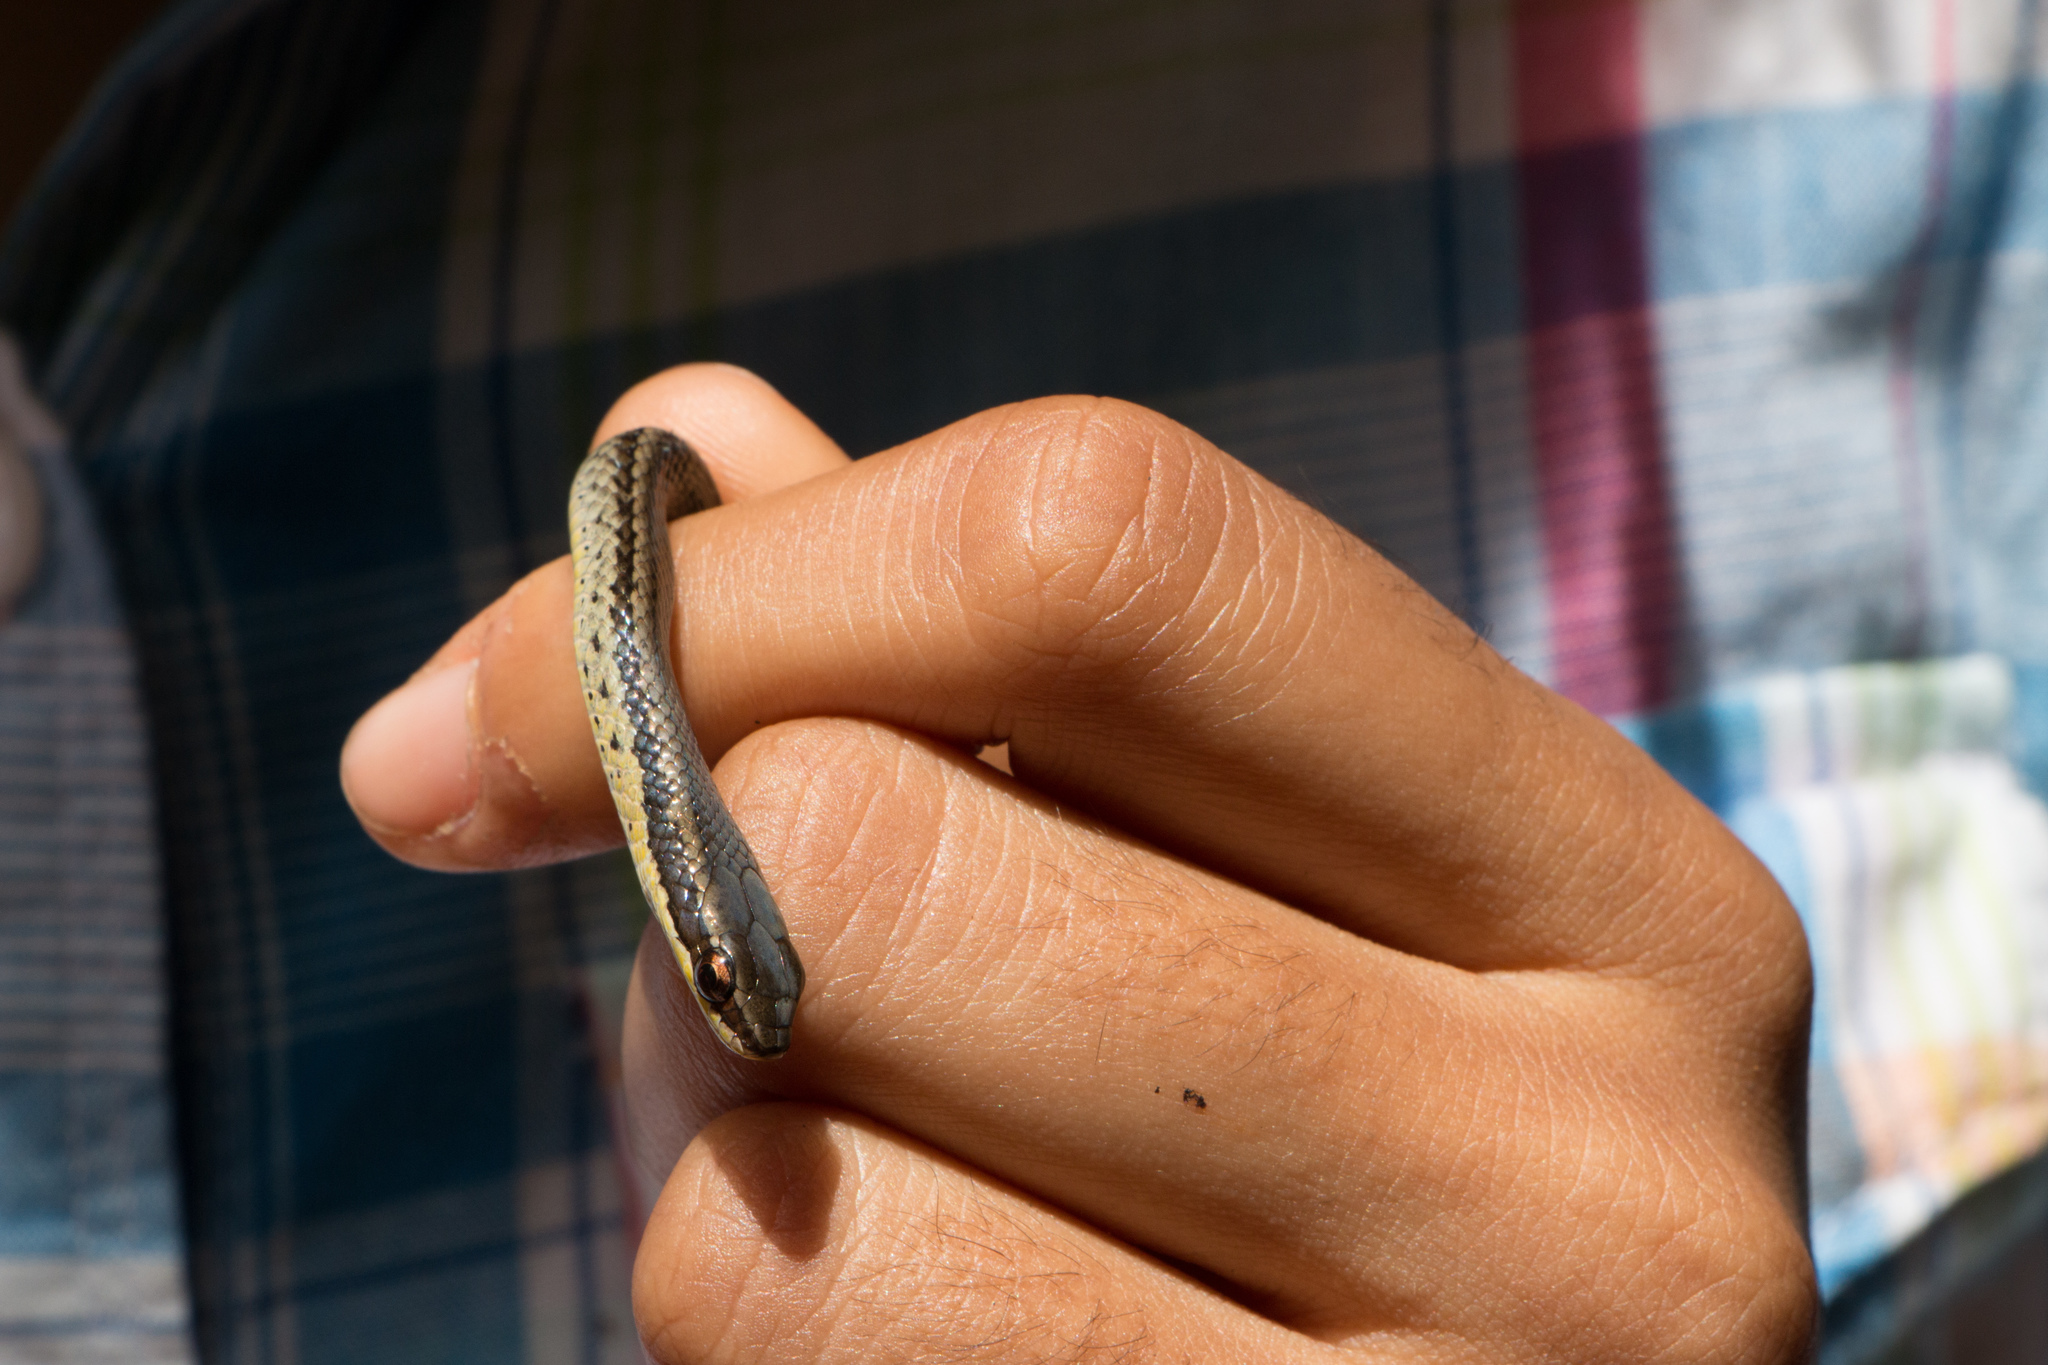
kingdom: Animalia
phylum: Chordata
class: Squamata
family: Colubridae
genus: Hypsirhynchus
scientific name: Hypsirhynchus parvifrons
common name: Cope's antilles snake
